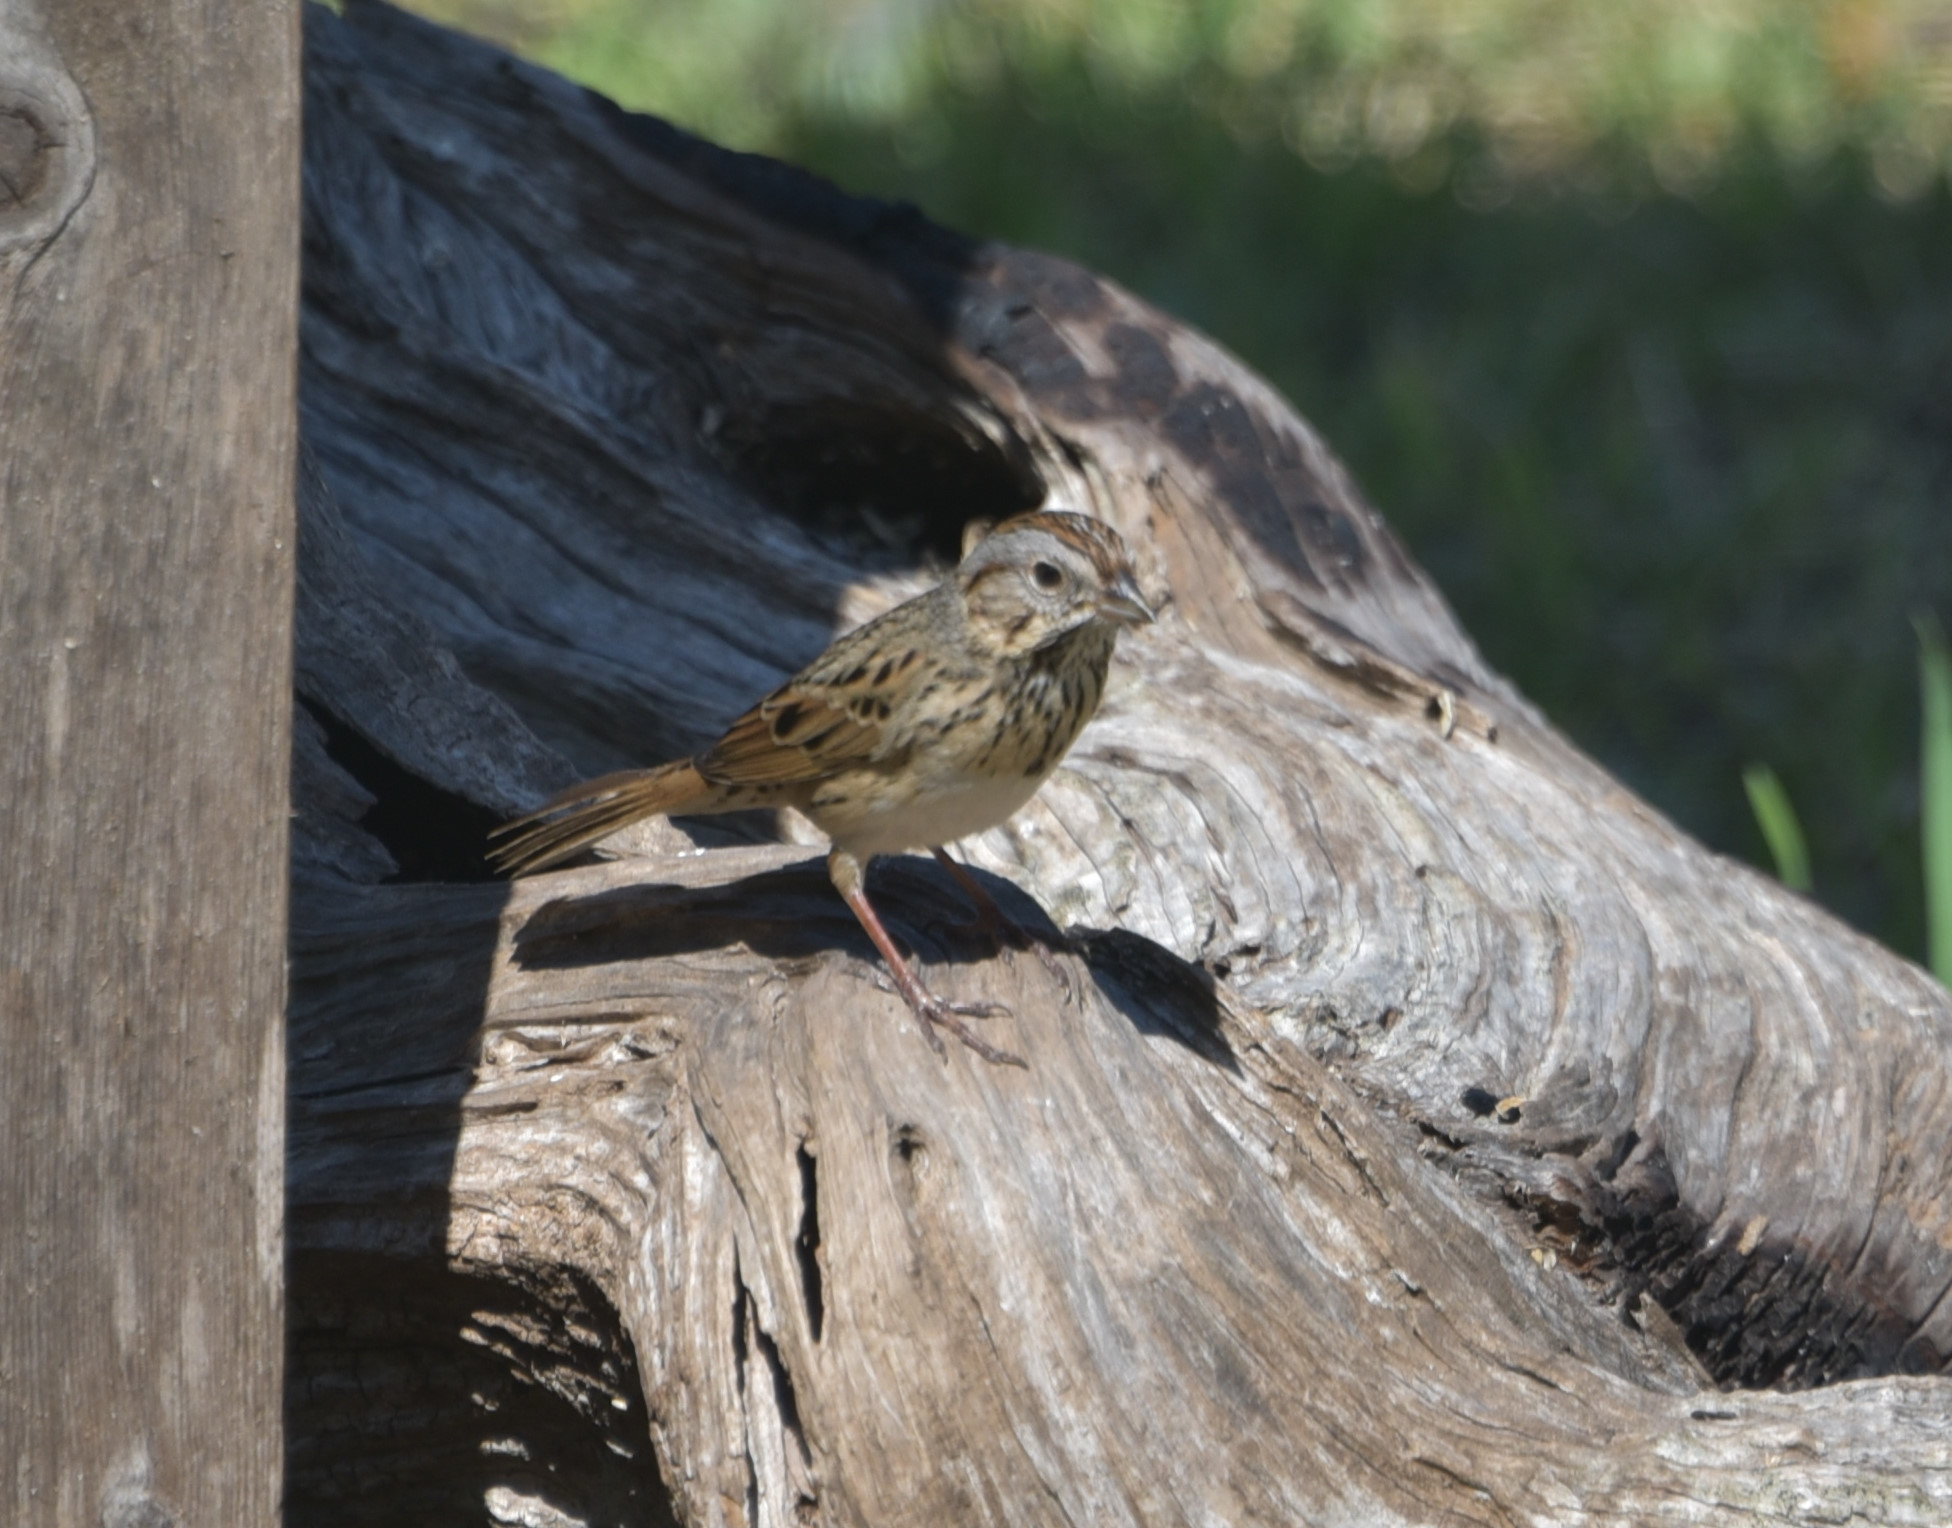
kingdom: Animalia
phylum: Chordata
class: Aves
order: Passeriformes
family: Passerellidae
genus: Melospiza
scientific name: Melospiza lincolnii
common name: Lincoln's sparrow
